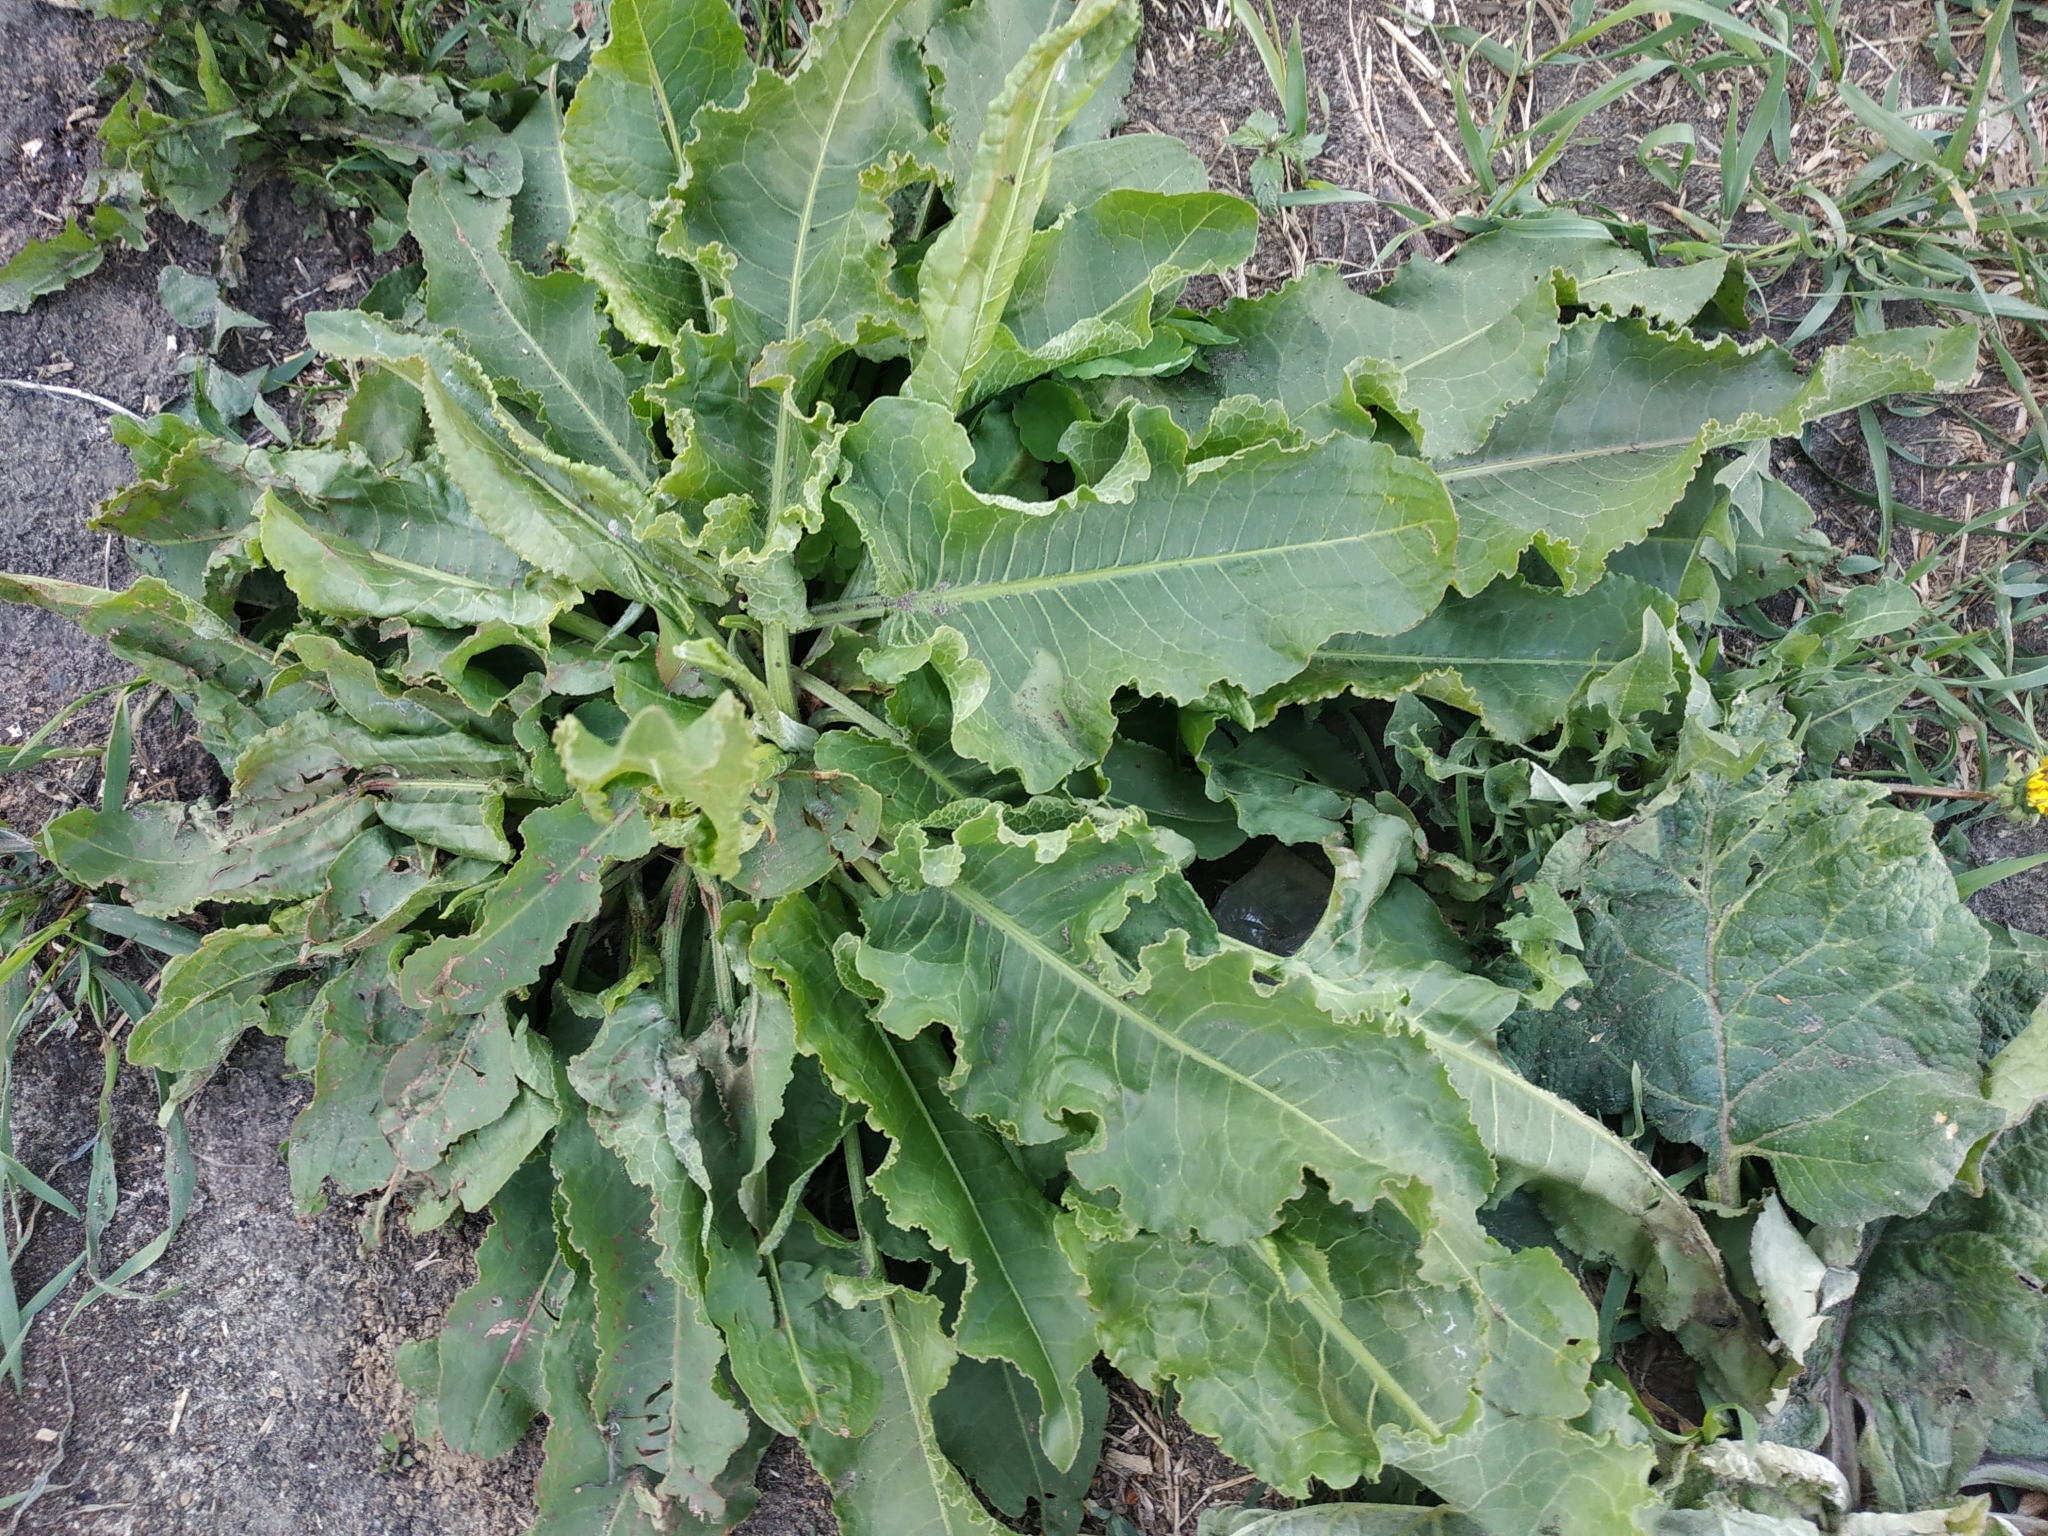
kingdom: Plantae
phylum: Tracheophyta
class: Magnoliopsida
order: Caryophyllales
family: Polygonaceae
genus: Rumex
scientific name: Rumex confertus
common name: Russian dock
